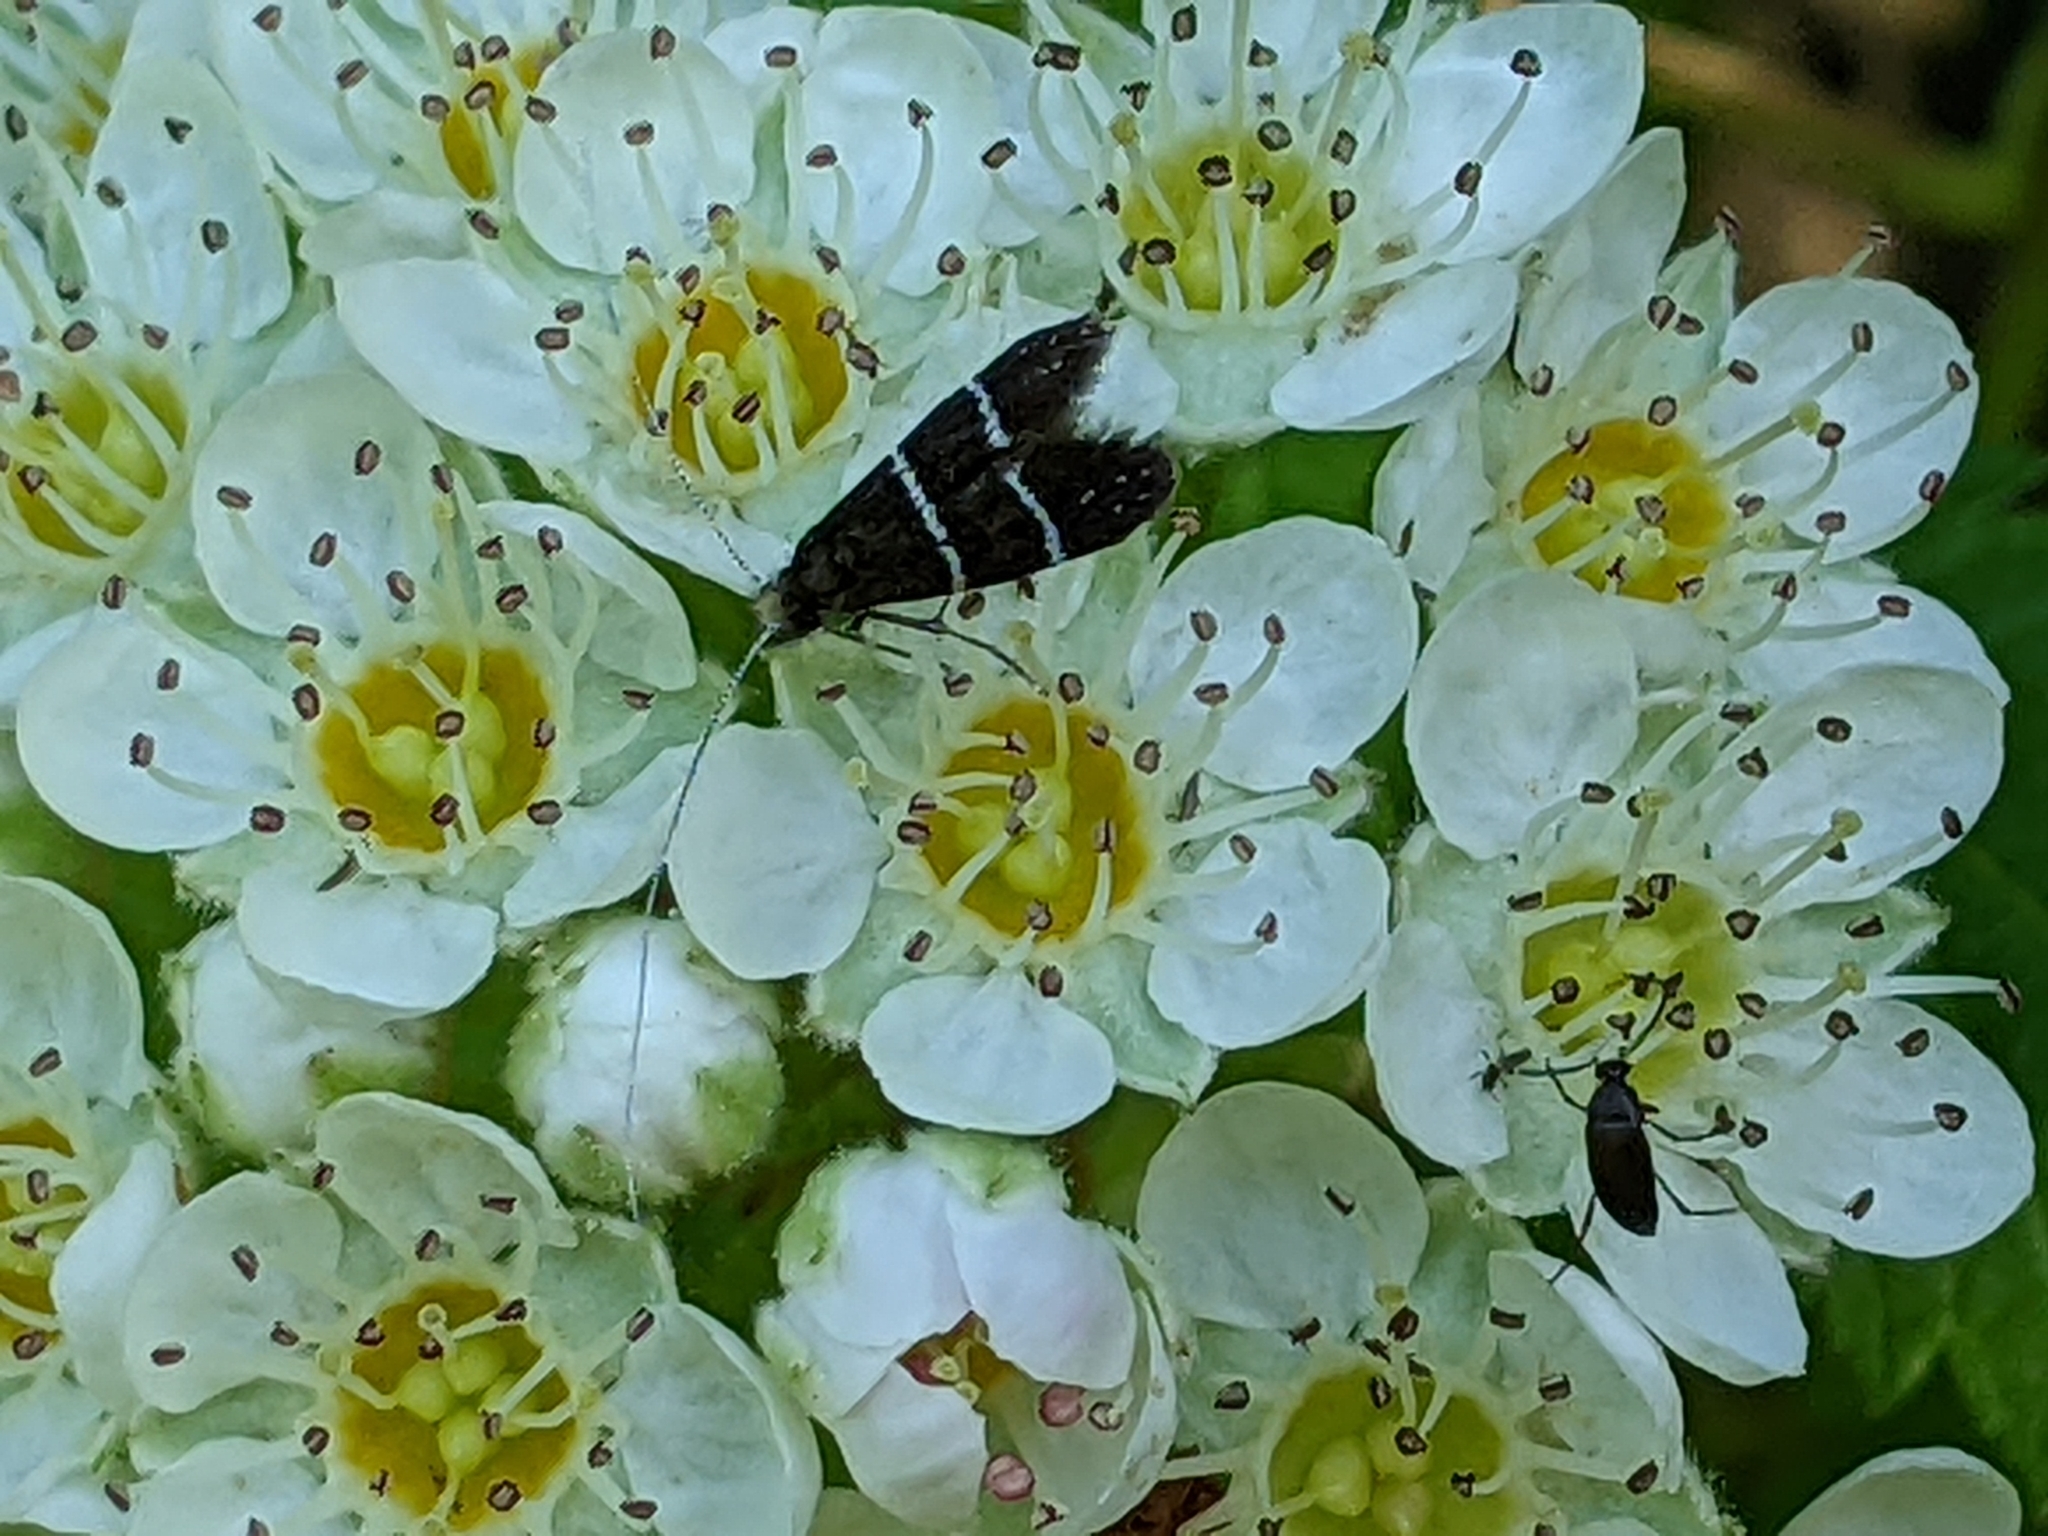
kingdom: Animalia
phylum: Arthropoda
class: Insecta
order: Lepidoptera
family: Adelidae
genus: Adela
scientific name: Adela septentrionella
